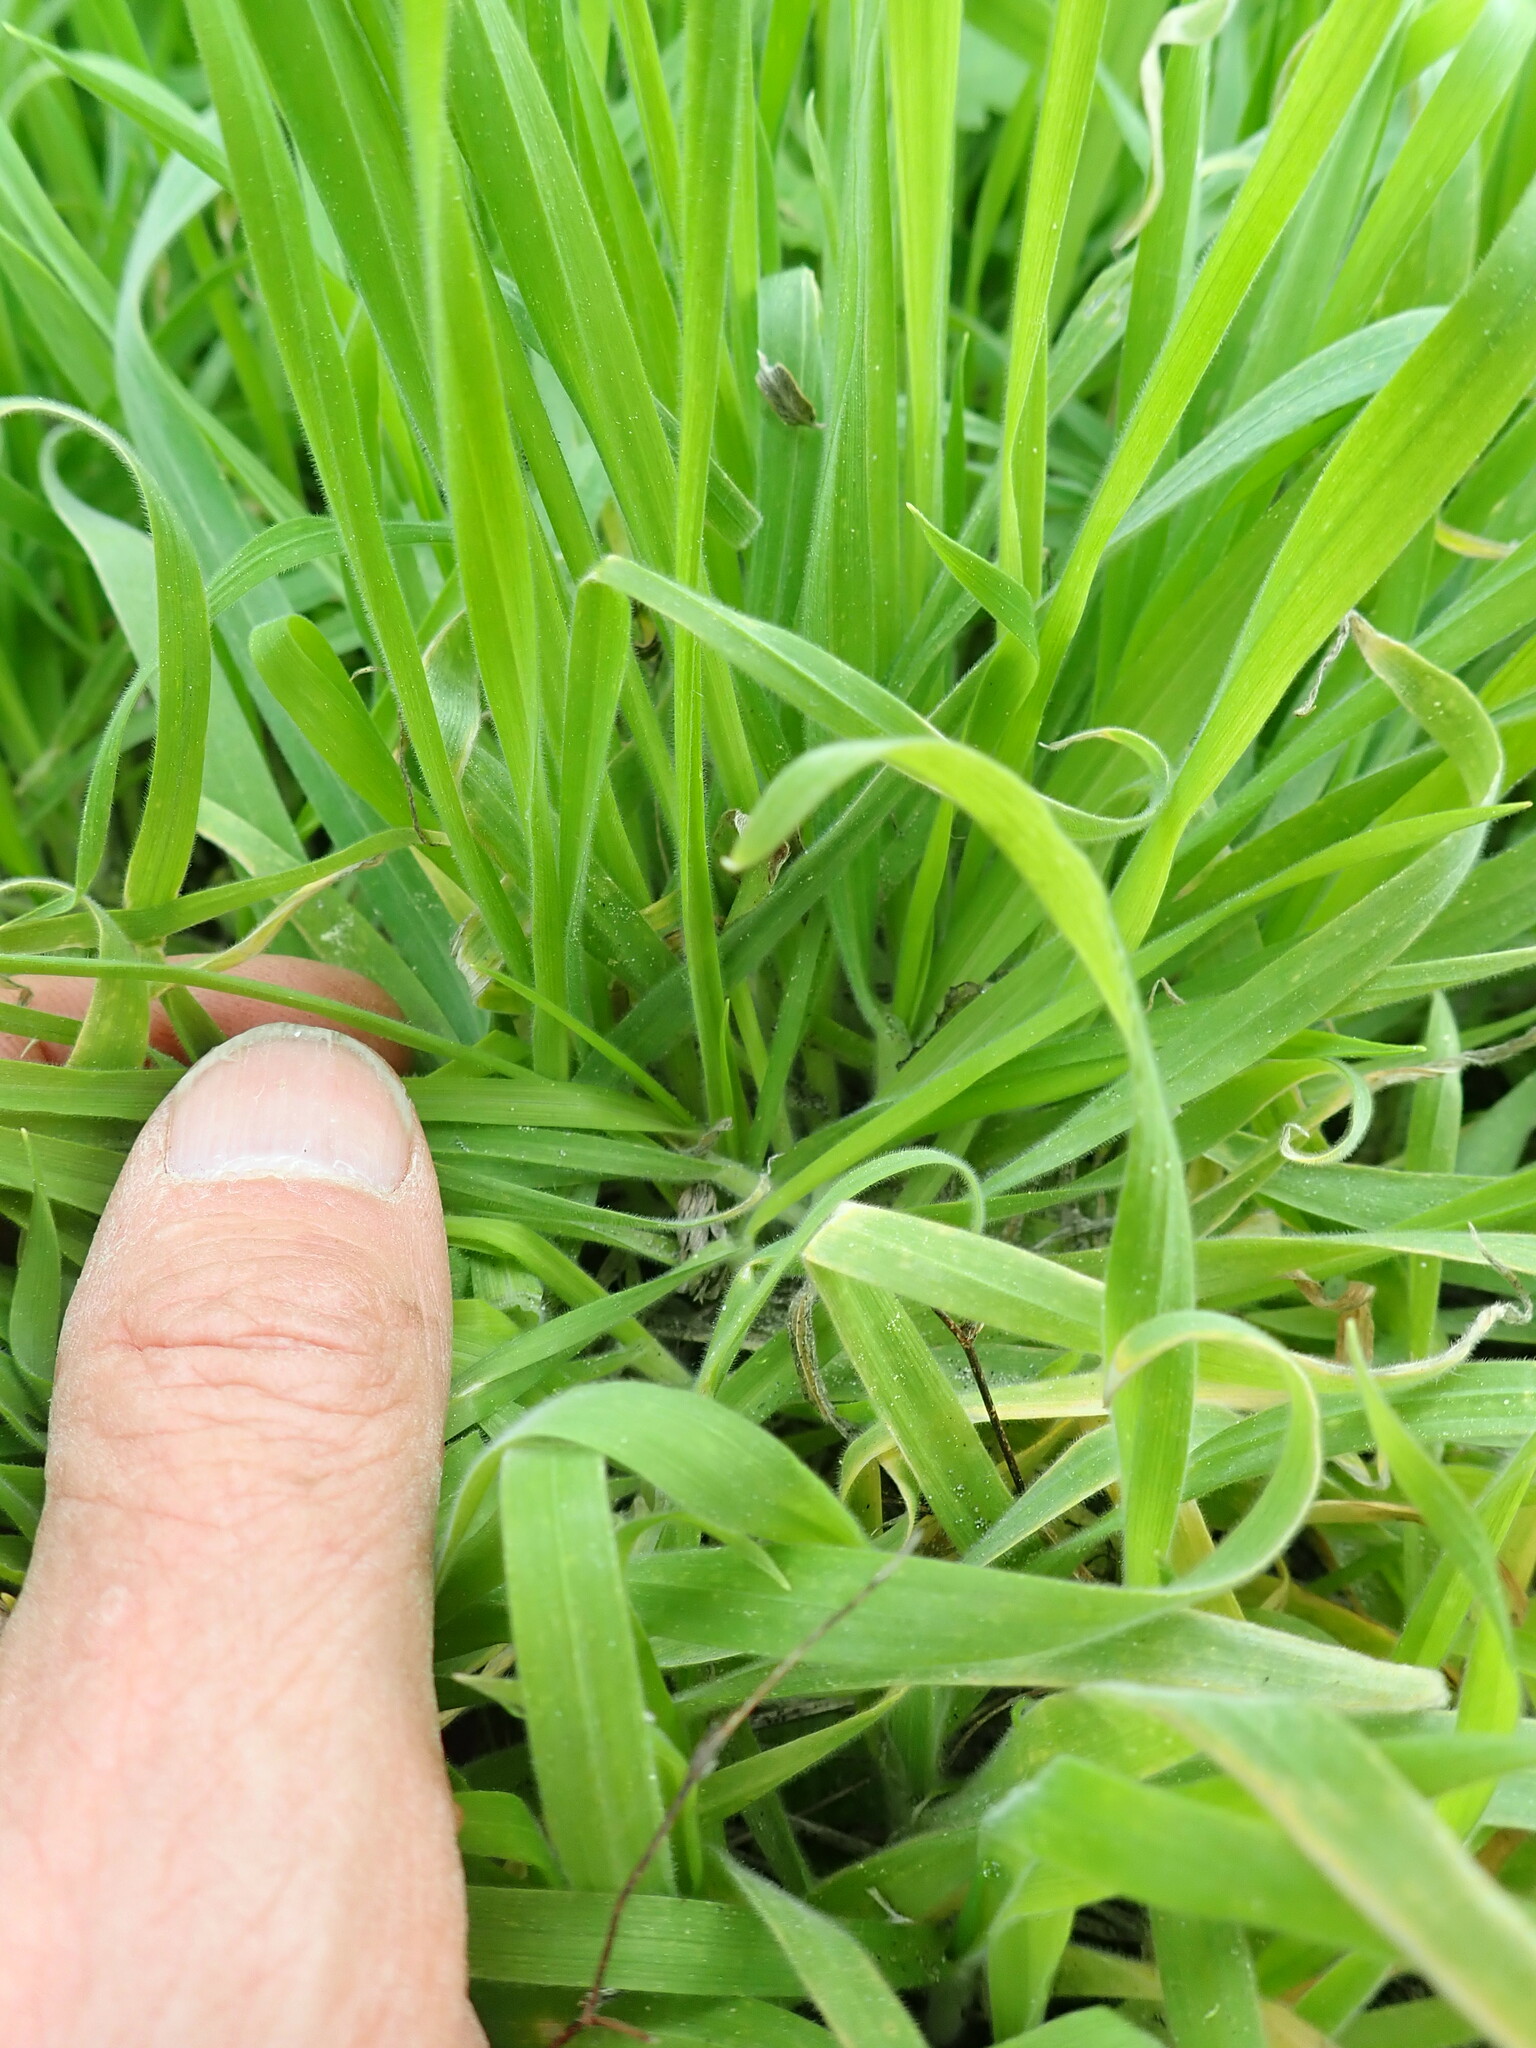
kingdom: Plantae
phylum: Tracheophyta
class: Liliopsida
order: Poales
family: Poaceae
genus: Holcus
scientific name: Holcus lanatus
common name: Yorkshire-fog
